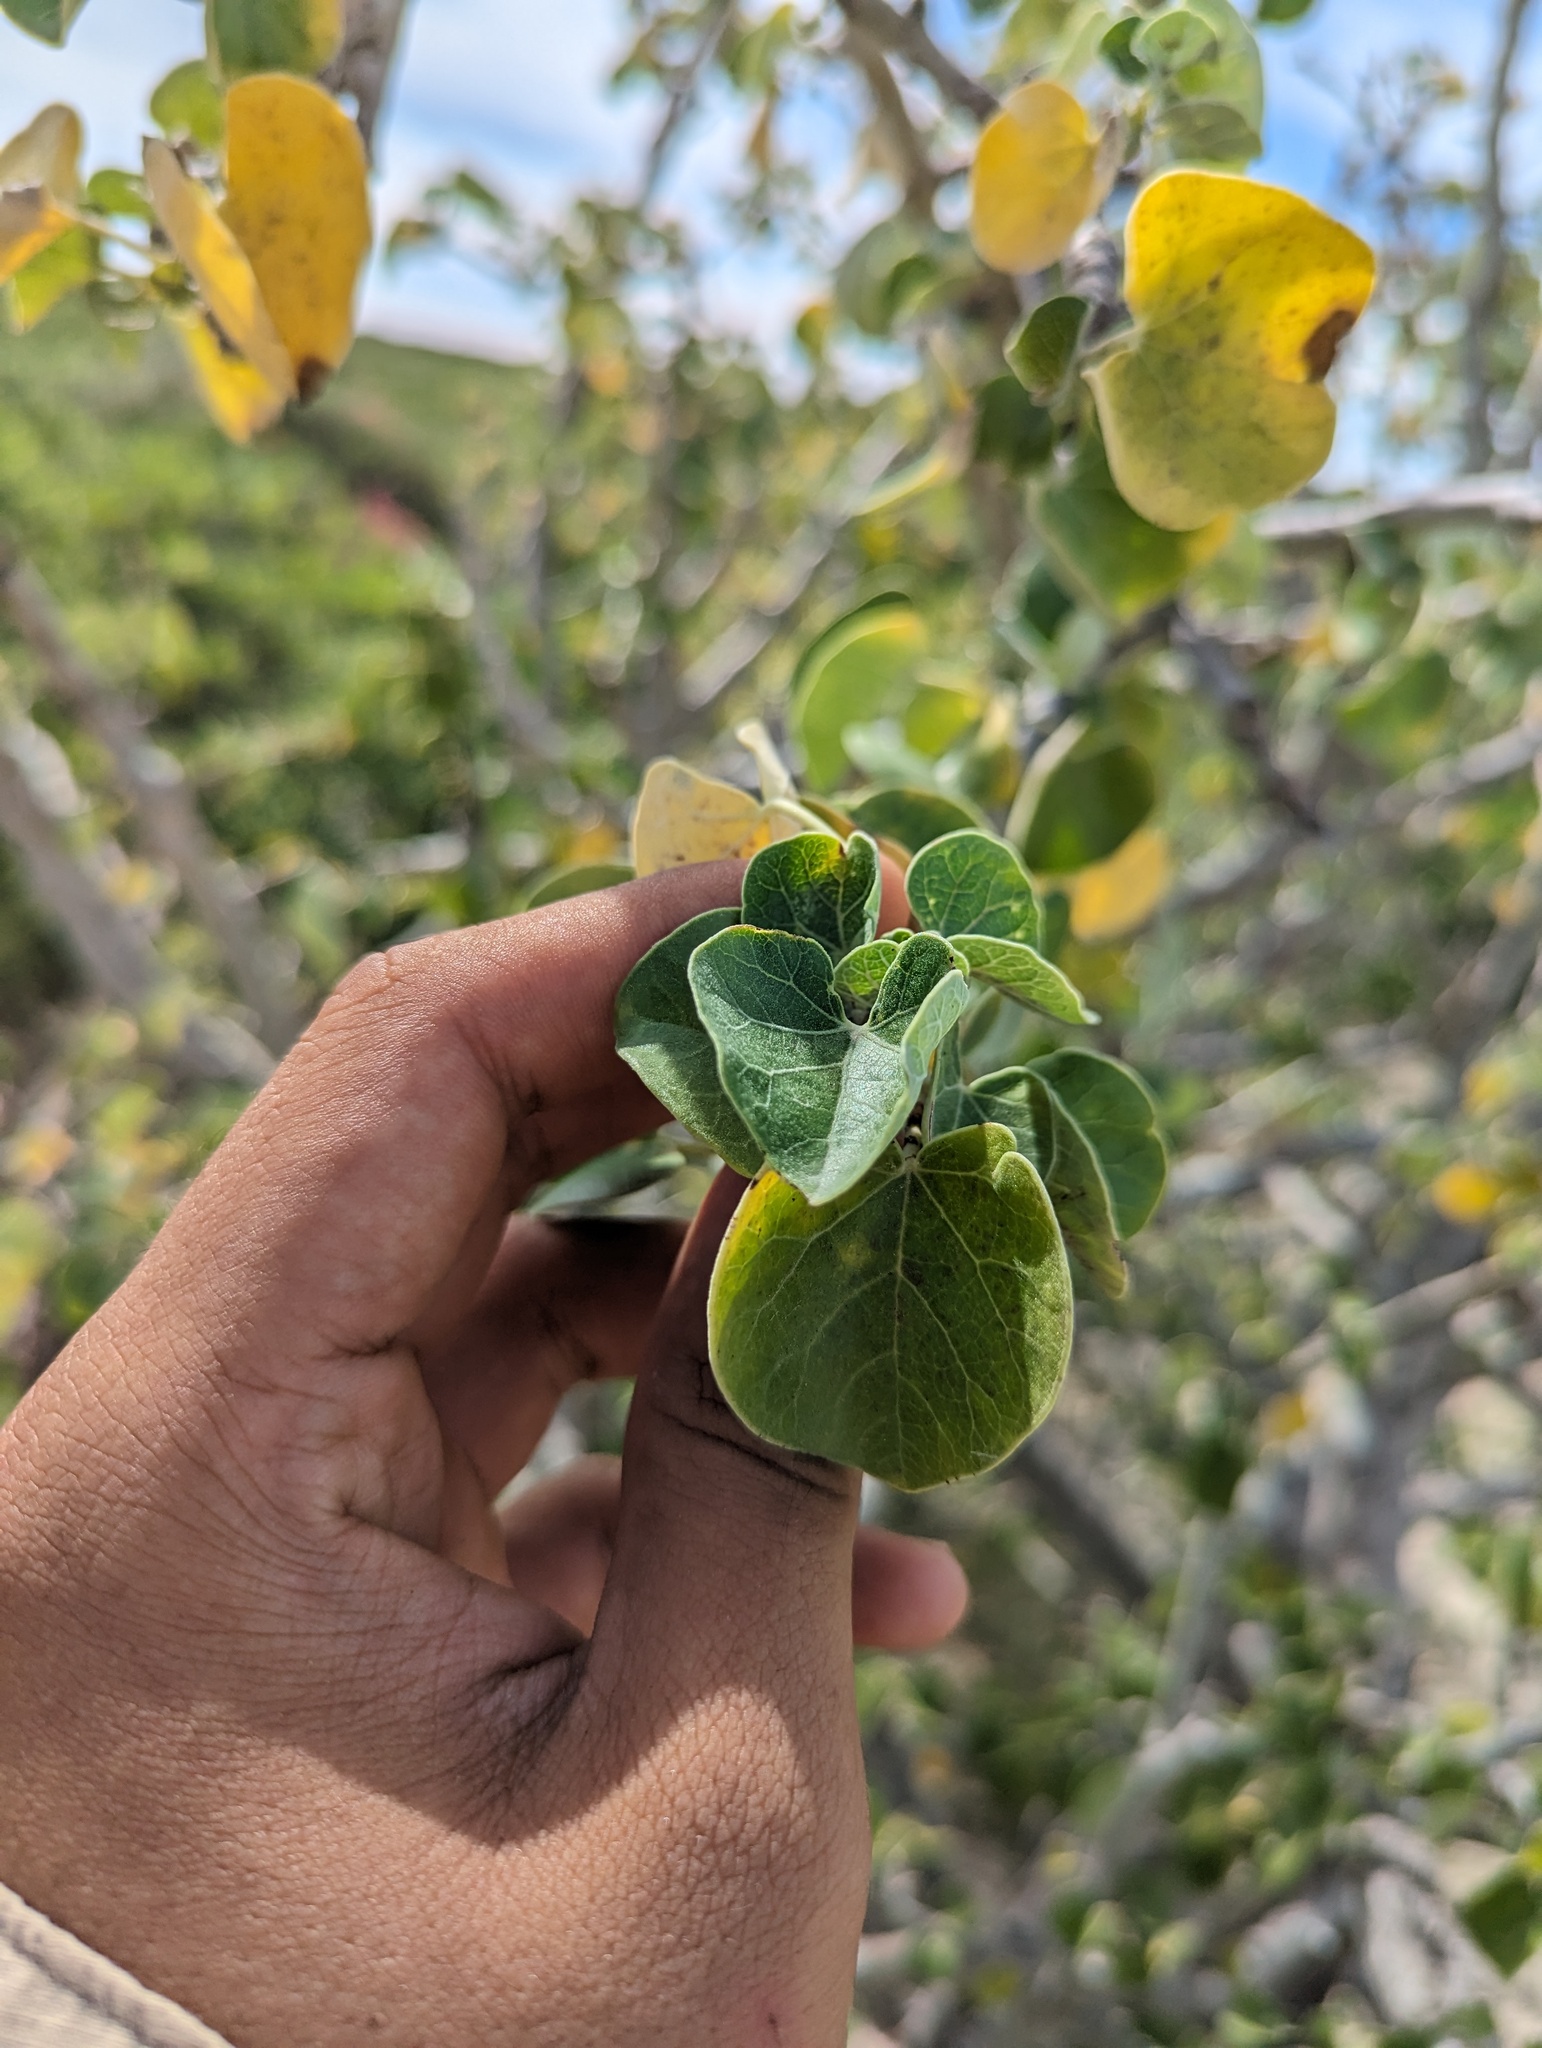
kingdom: Plantae
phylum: Tracheophyta
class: Magnoliopsida
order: Malpighiales
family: Euphorbiaceae
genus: Jatropha
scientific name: Jatropha cinerea
